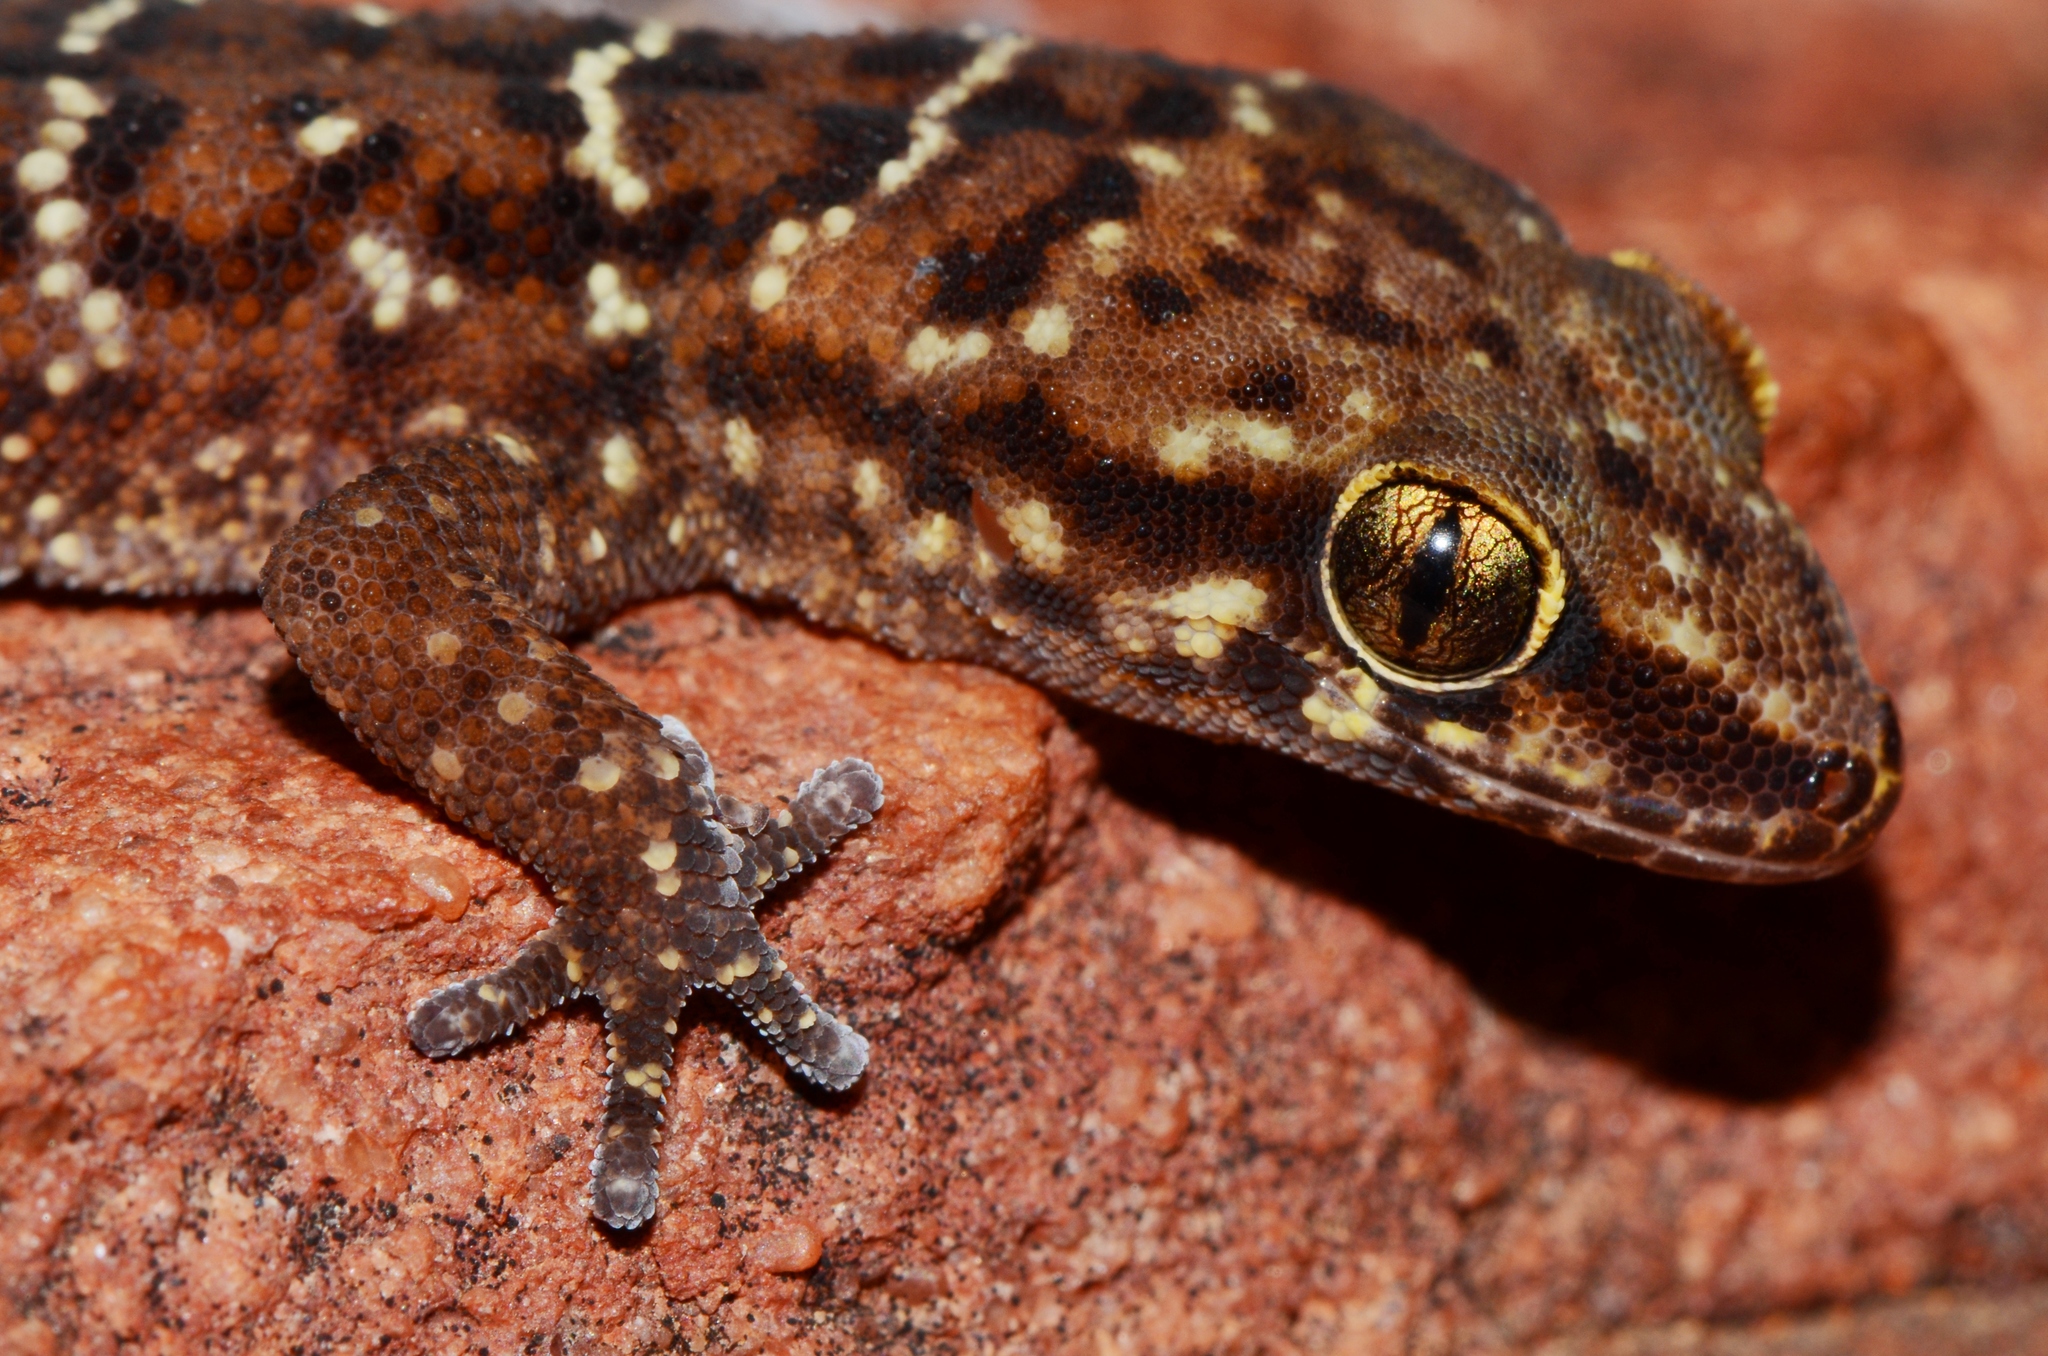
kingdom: Animalia
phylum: Chordata
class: Squamata
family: Gekkonidae
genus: Pachydactylus
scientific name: Pachydactylus affinis
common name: Transvaal gecko
